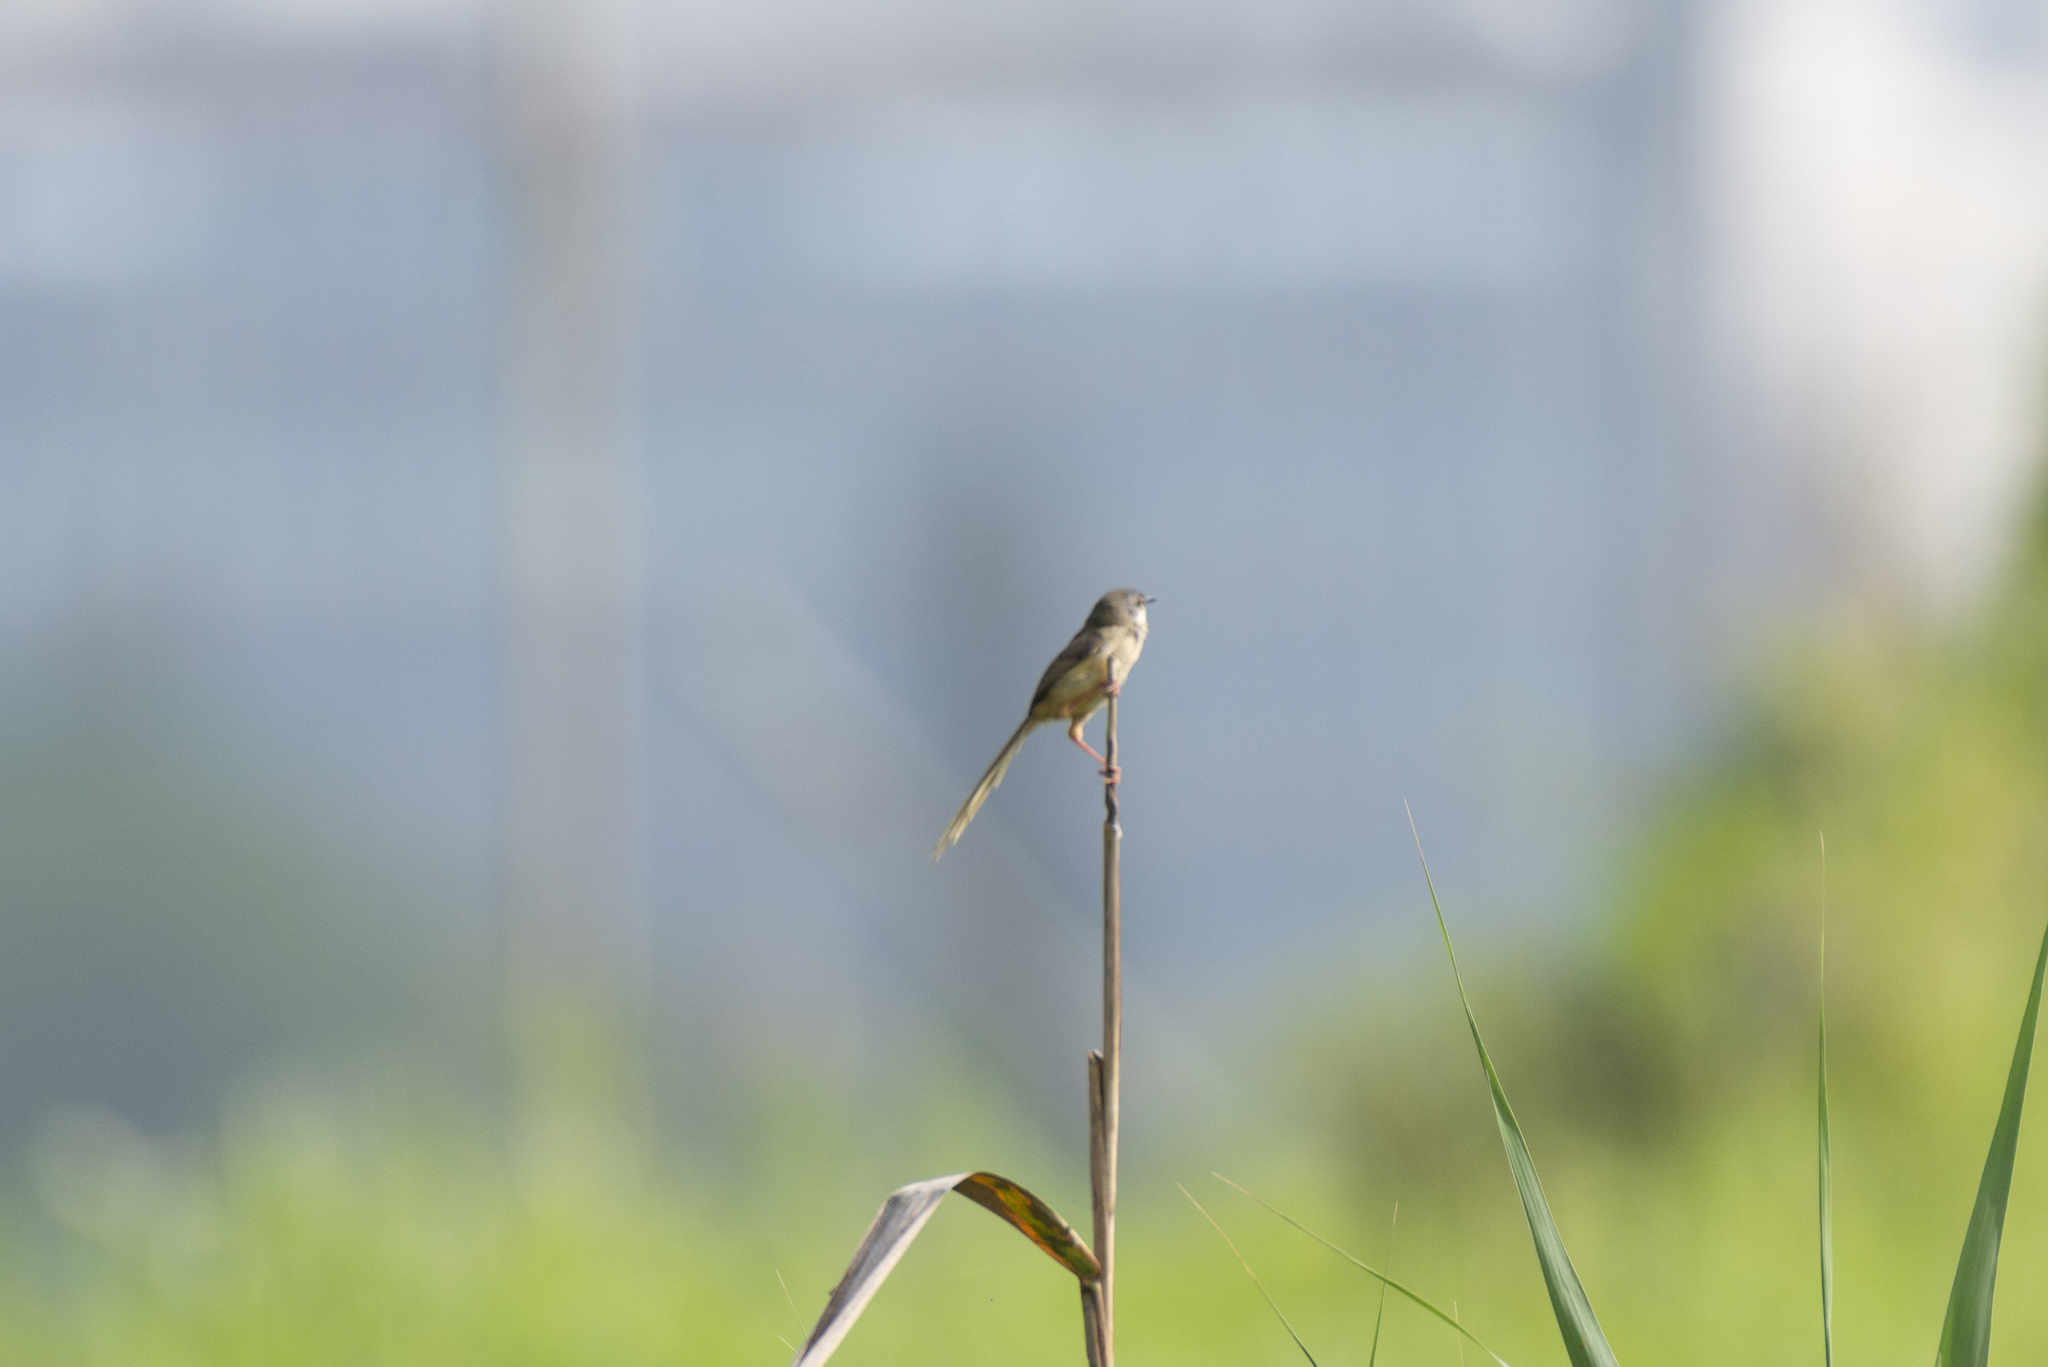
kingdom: Animalia
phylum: Chordata
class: Aves
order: Passeriformes
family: Cisticolidae
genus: Prinia
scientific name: Prinia flaviventris
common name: Yellow-bellied prinia
